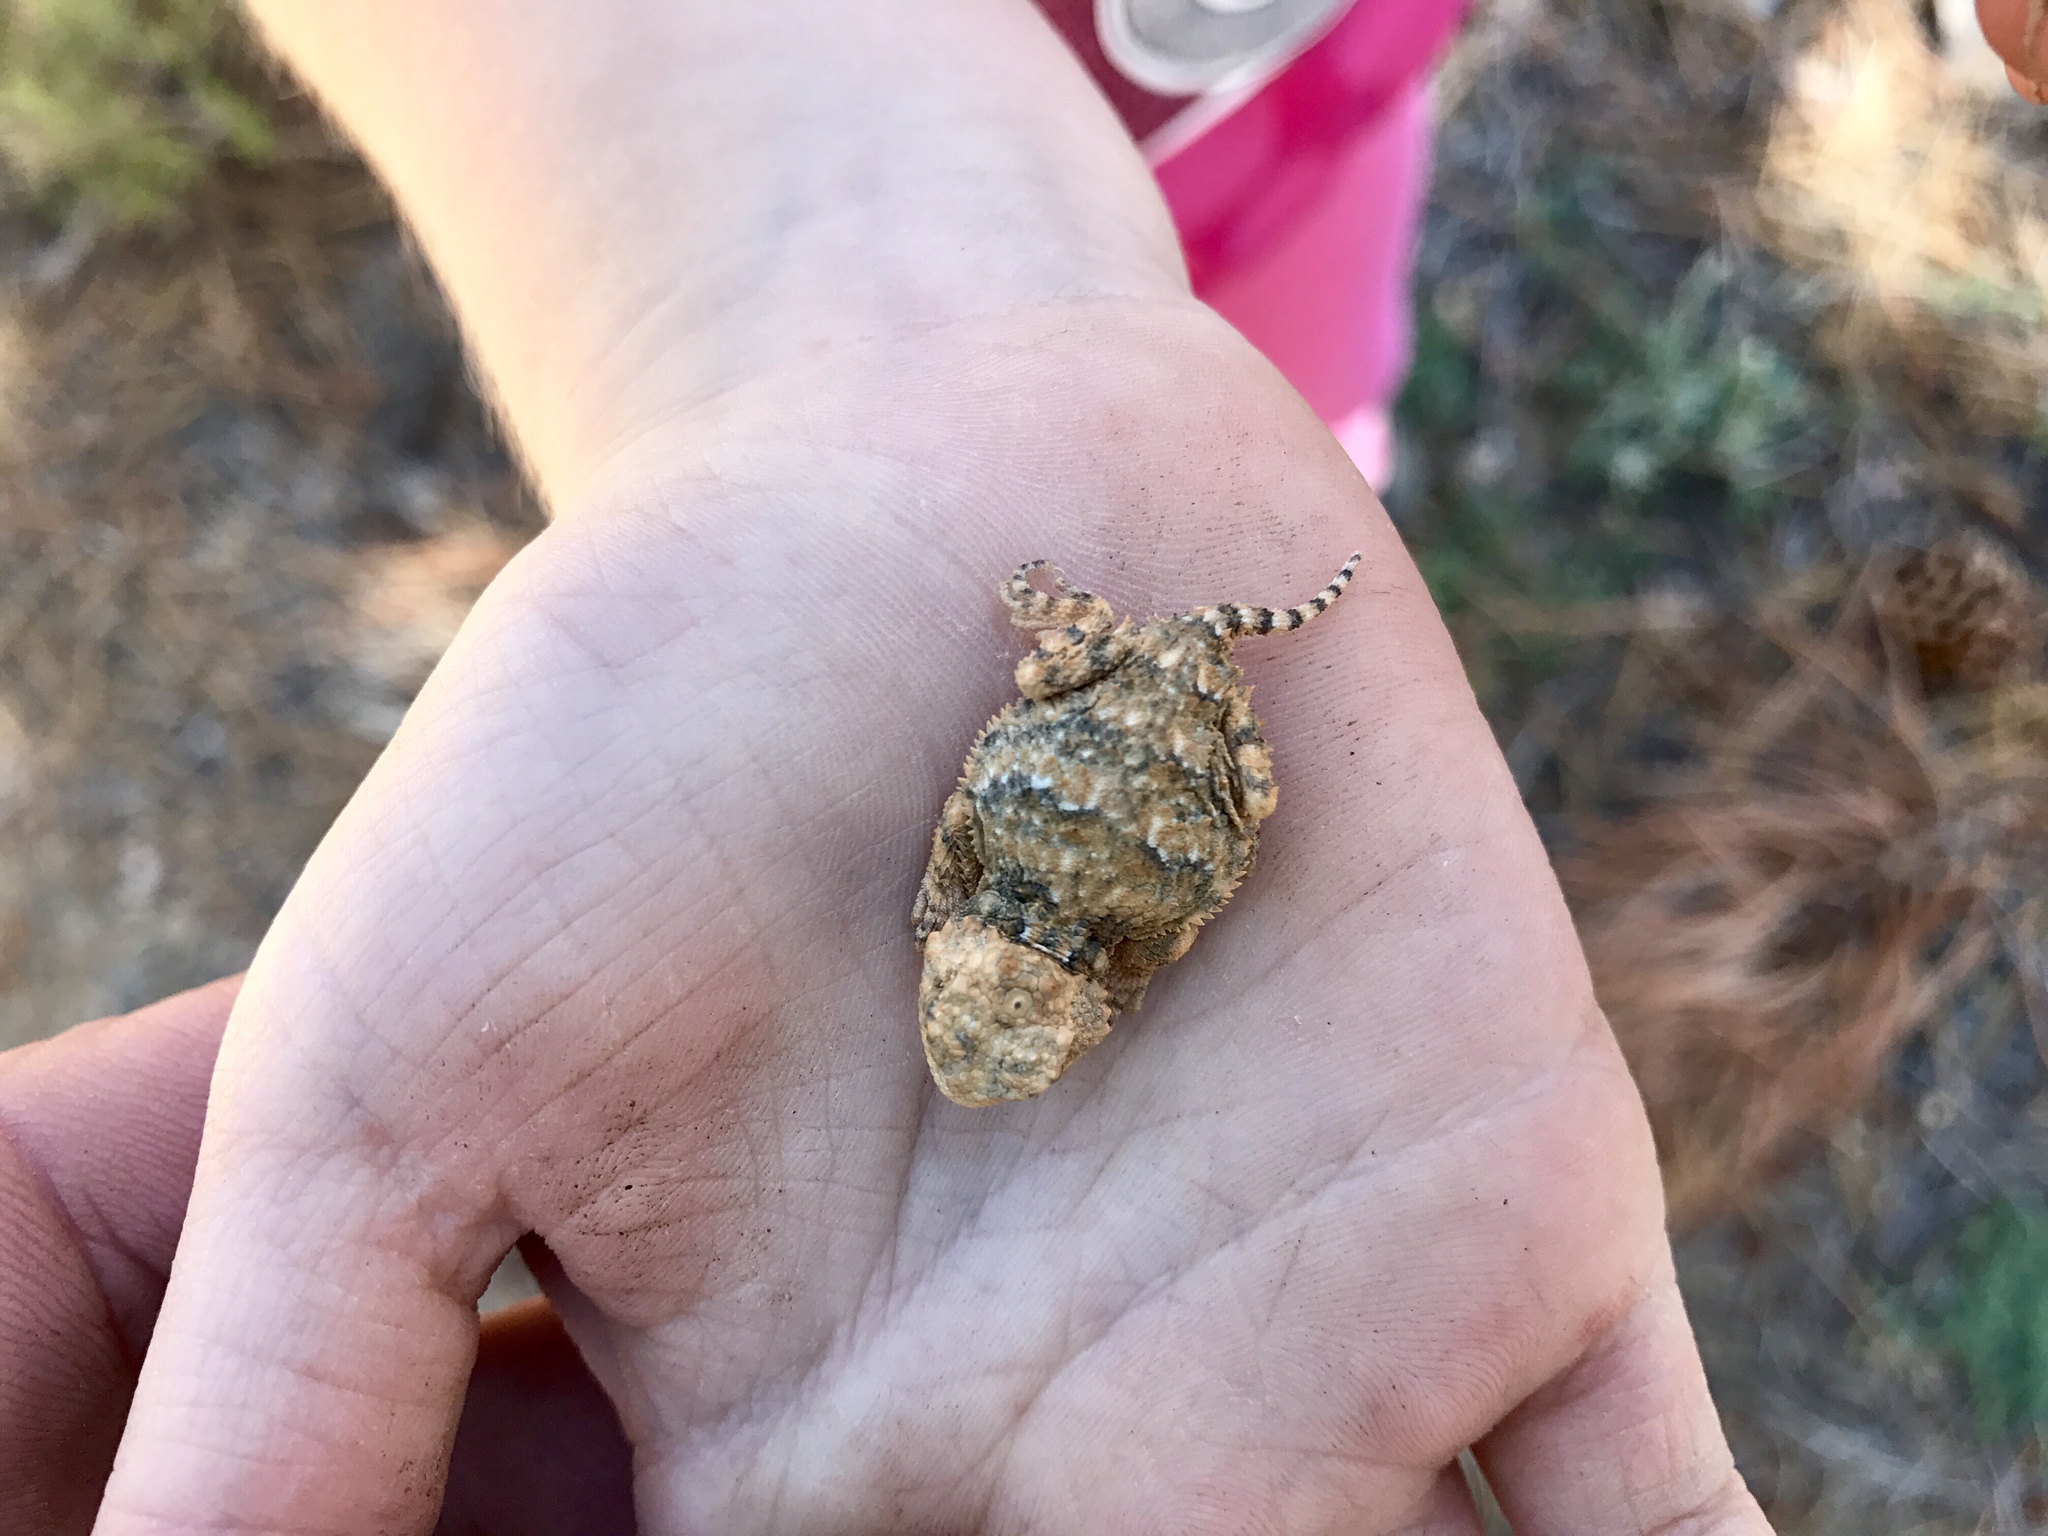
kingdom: Animalia
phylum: Chordata
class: Squamata
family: Phrynosomatidae
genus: Phrynosoma
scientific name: Phrynosoma hernandesi
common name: Greater short-horned lizard
